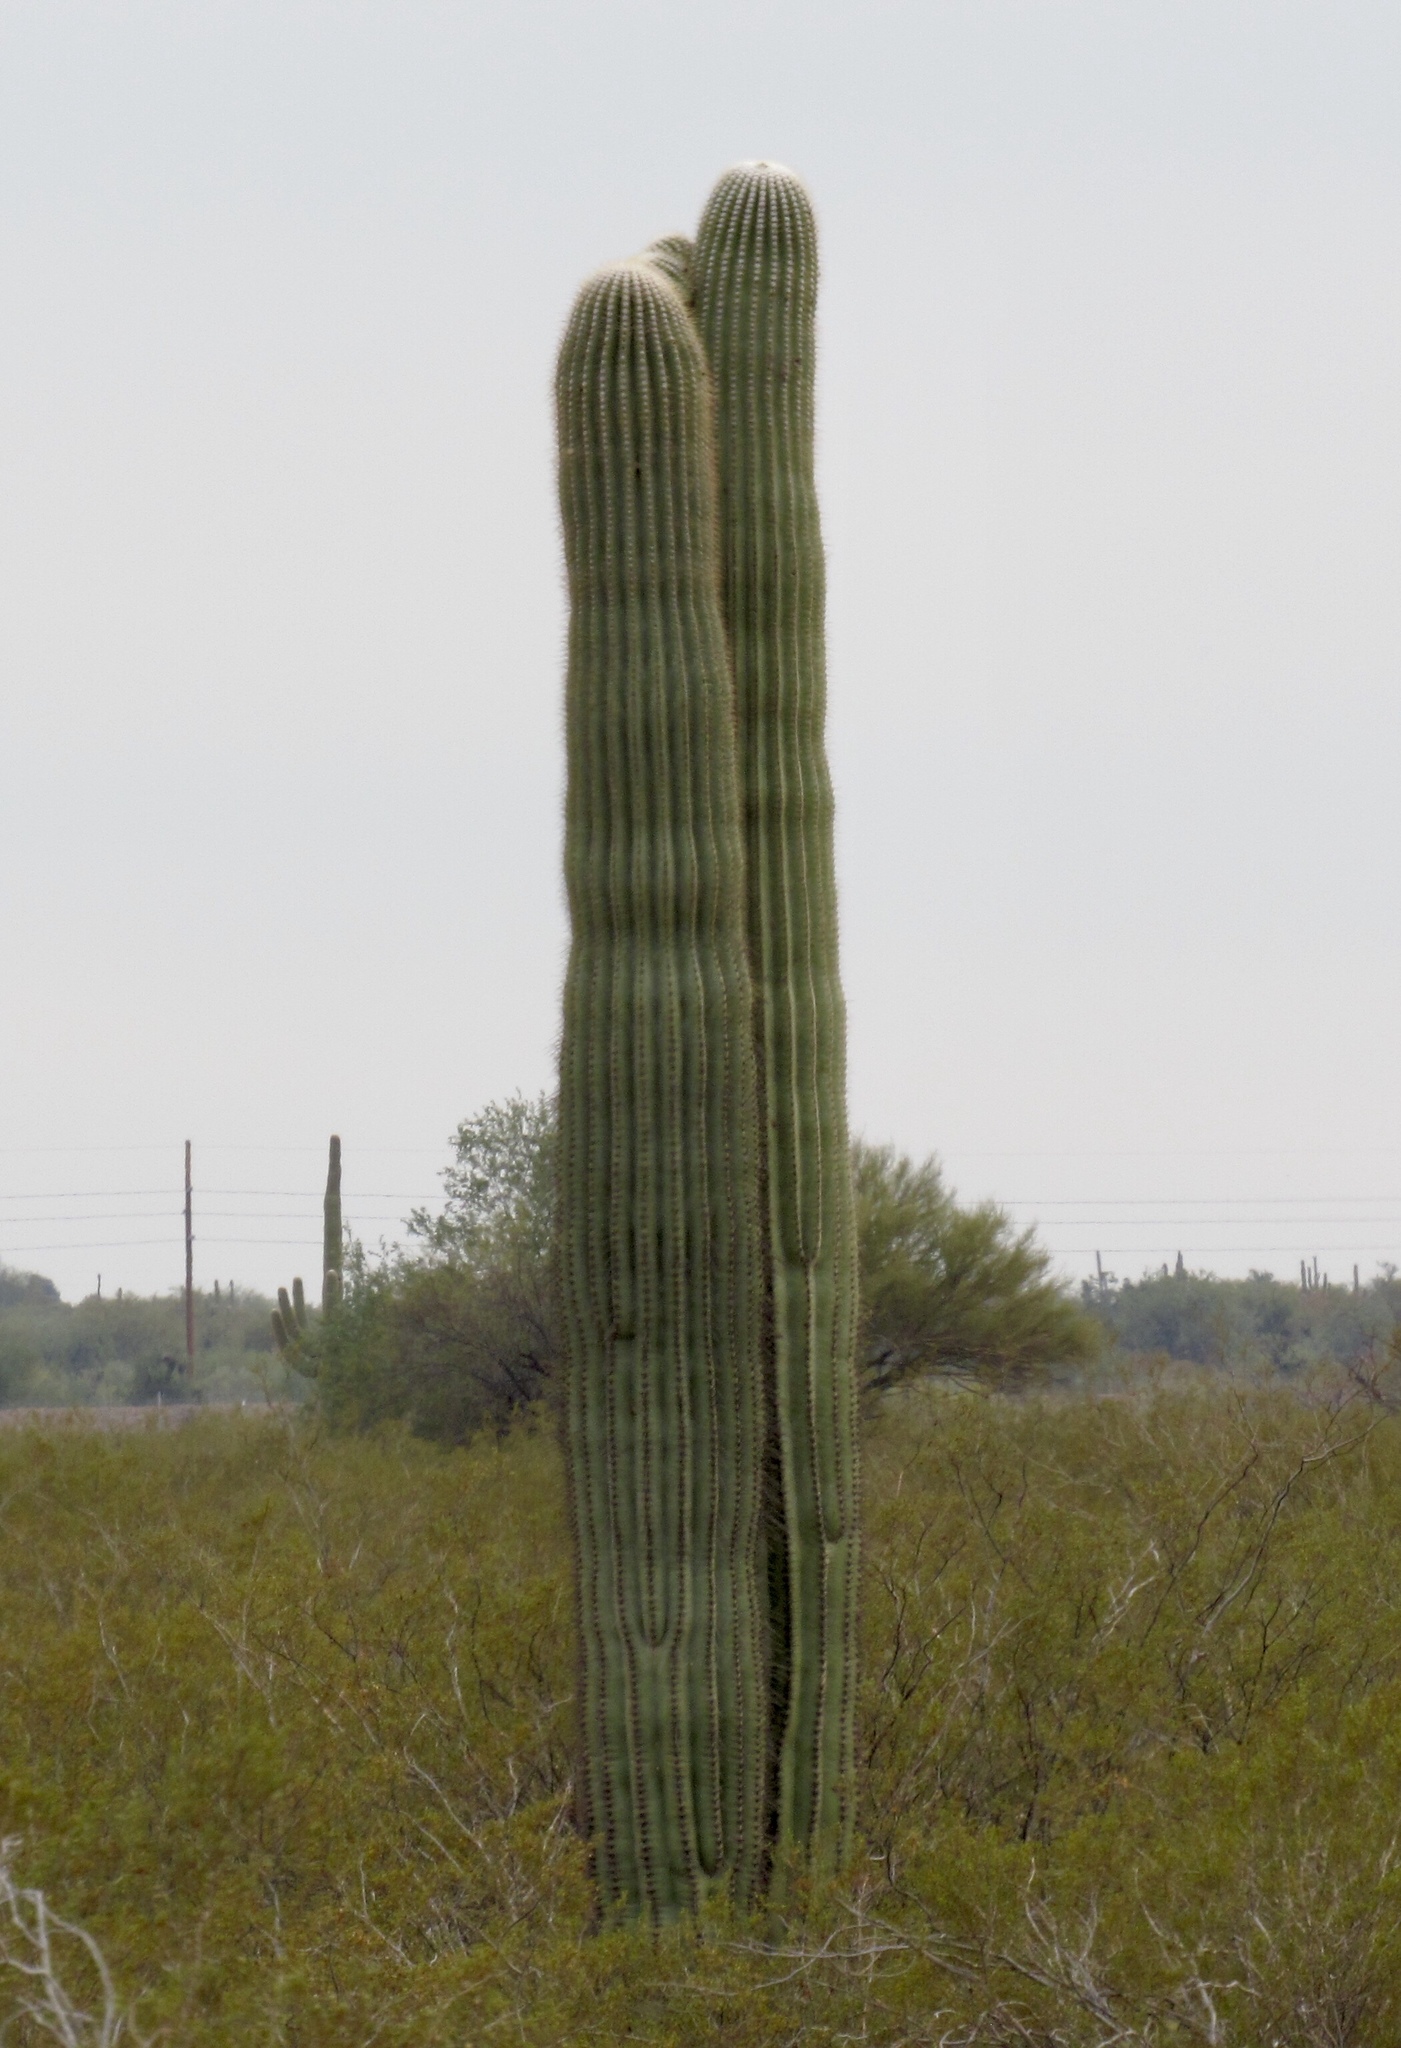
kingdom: Plantae
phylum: Tracheophyta
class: Magnoliopsida
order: Caryophyllales
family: Cactaceae
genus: Carnegiea
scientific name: Carnegiea gigantea
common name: Saguaro
